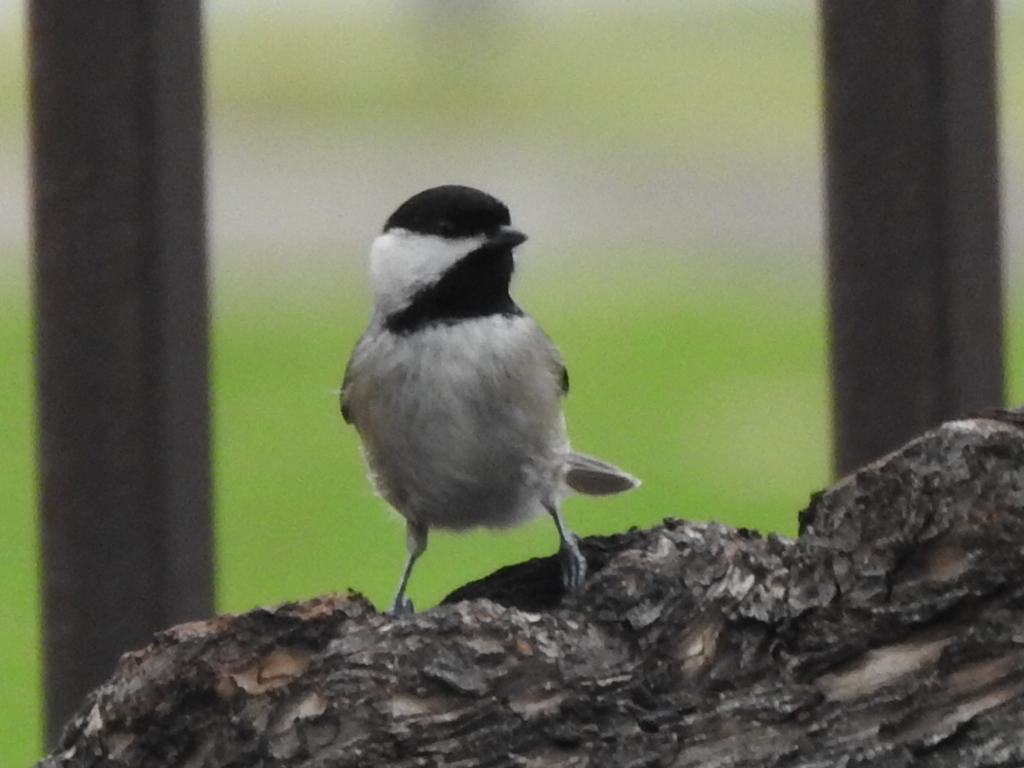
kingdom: Animalia
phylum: Chordata
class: Aves
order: Passeriformes
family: Paridae
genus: Poecile
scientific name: Poecile carolinensis
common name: Carolina chickadee
